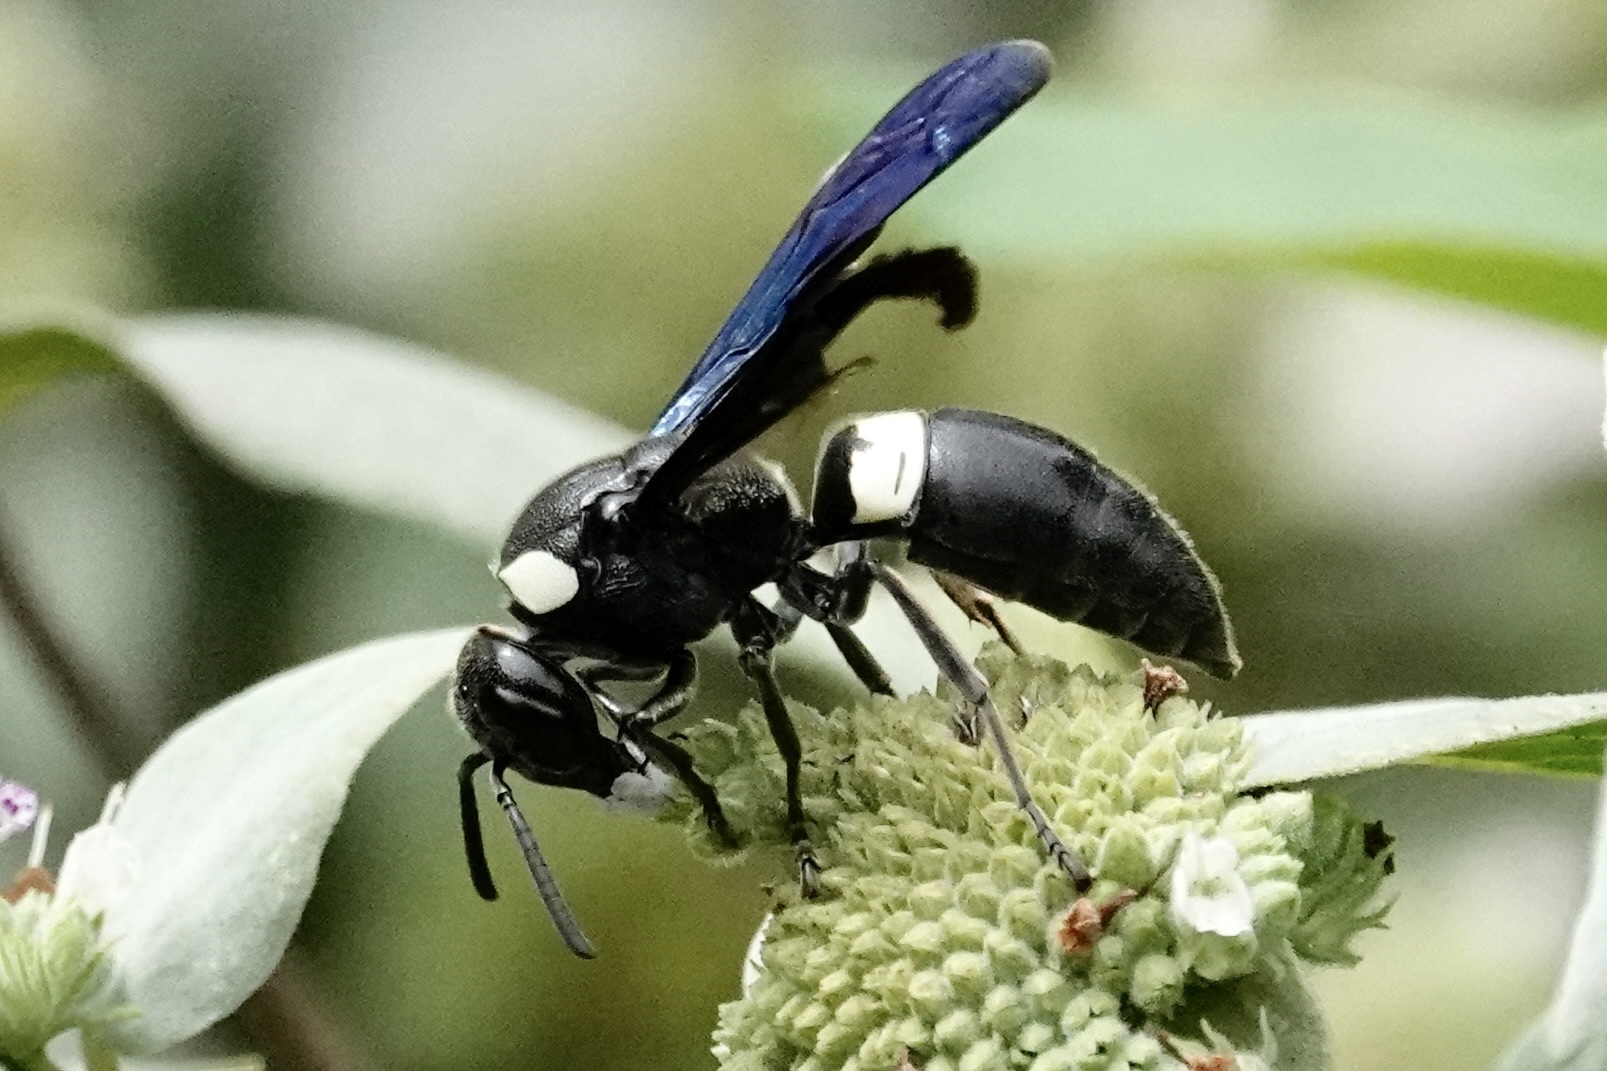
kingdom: Animalia
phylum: Arthropoda
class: Insecta
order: Hymenoptera
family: Eumenidae
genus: Monobia
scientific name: Monobia quadridens
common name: Four-toothed mason wasp
